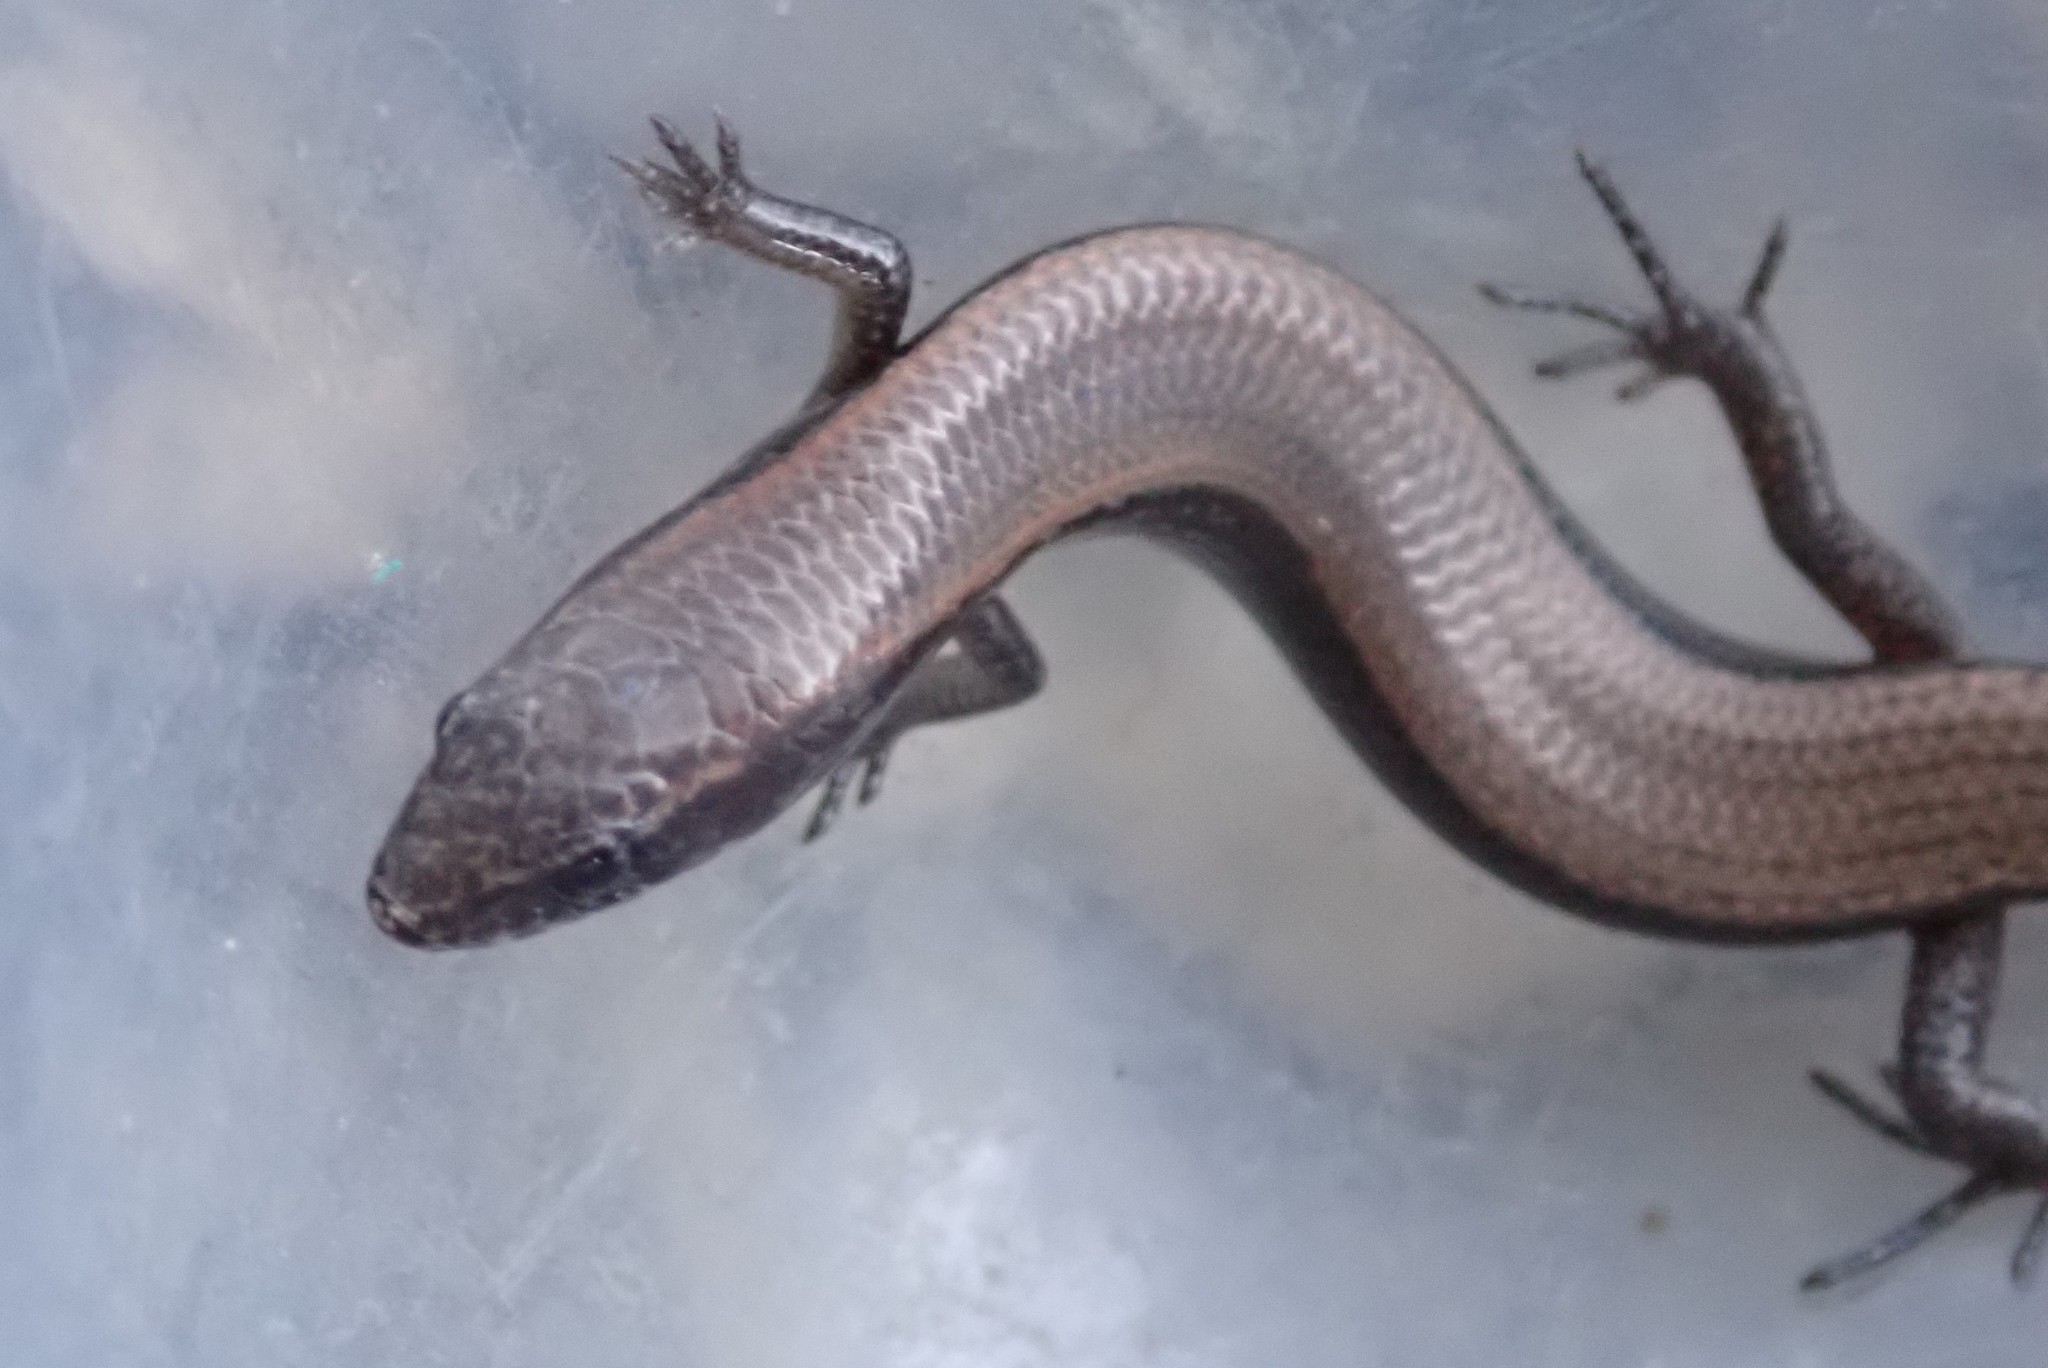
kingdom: Animalia
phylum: Chordata
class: Squamata
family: Scincidae
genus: Panaspis
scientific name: Panaspis maculicollis
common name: Spotted-neck snake-eyed skink
